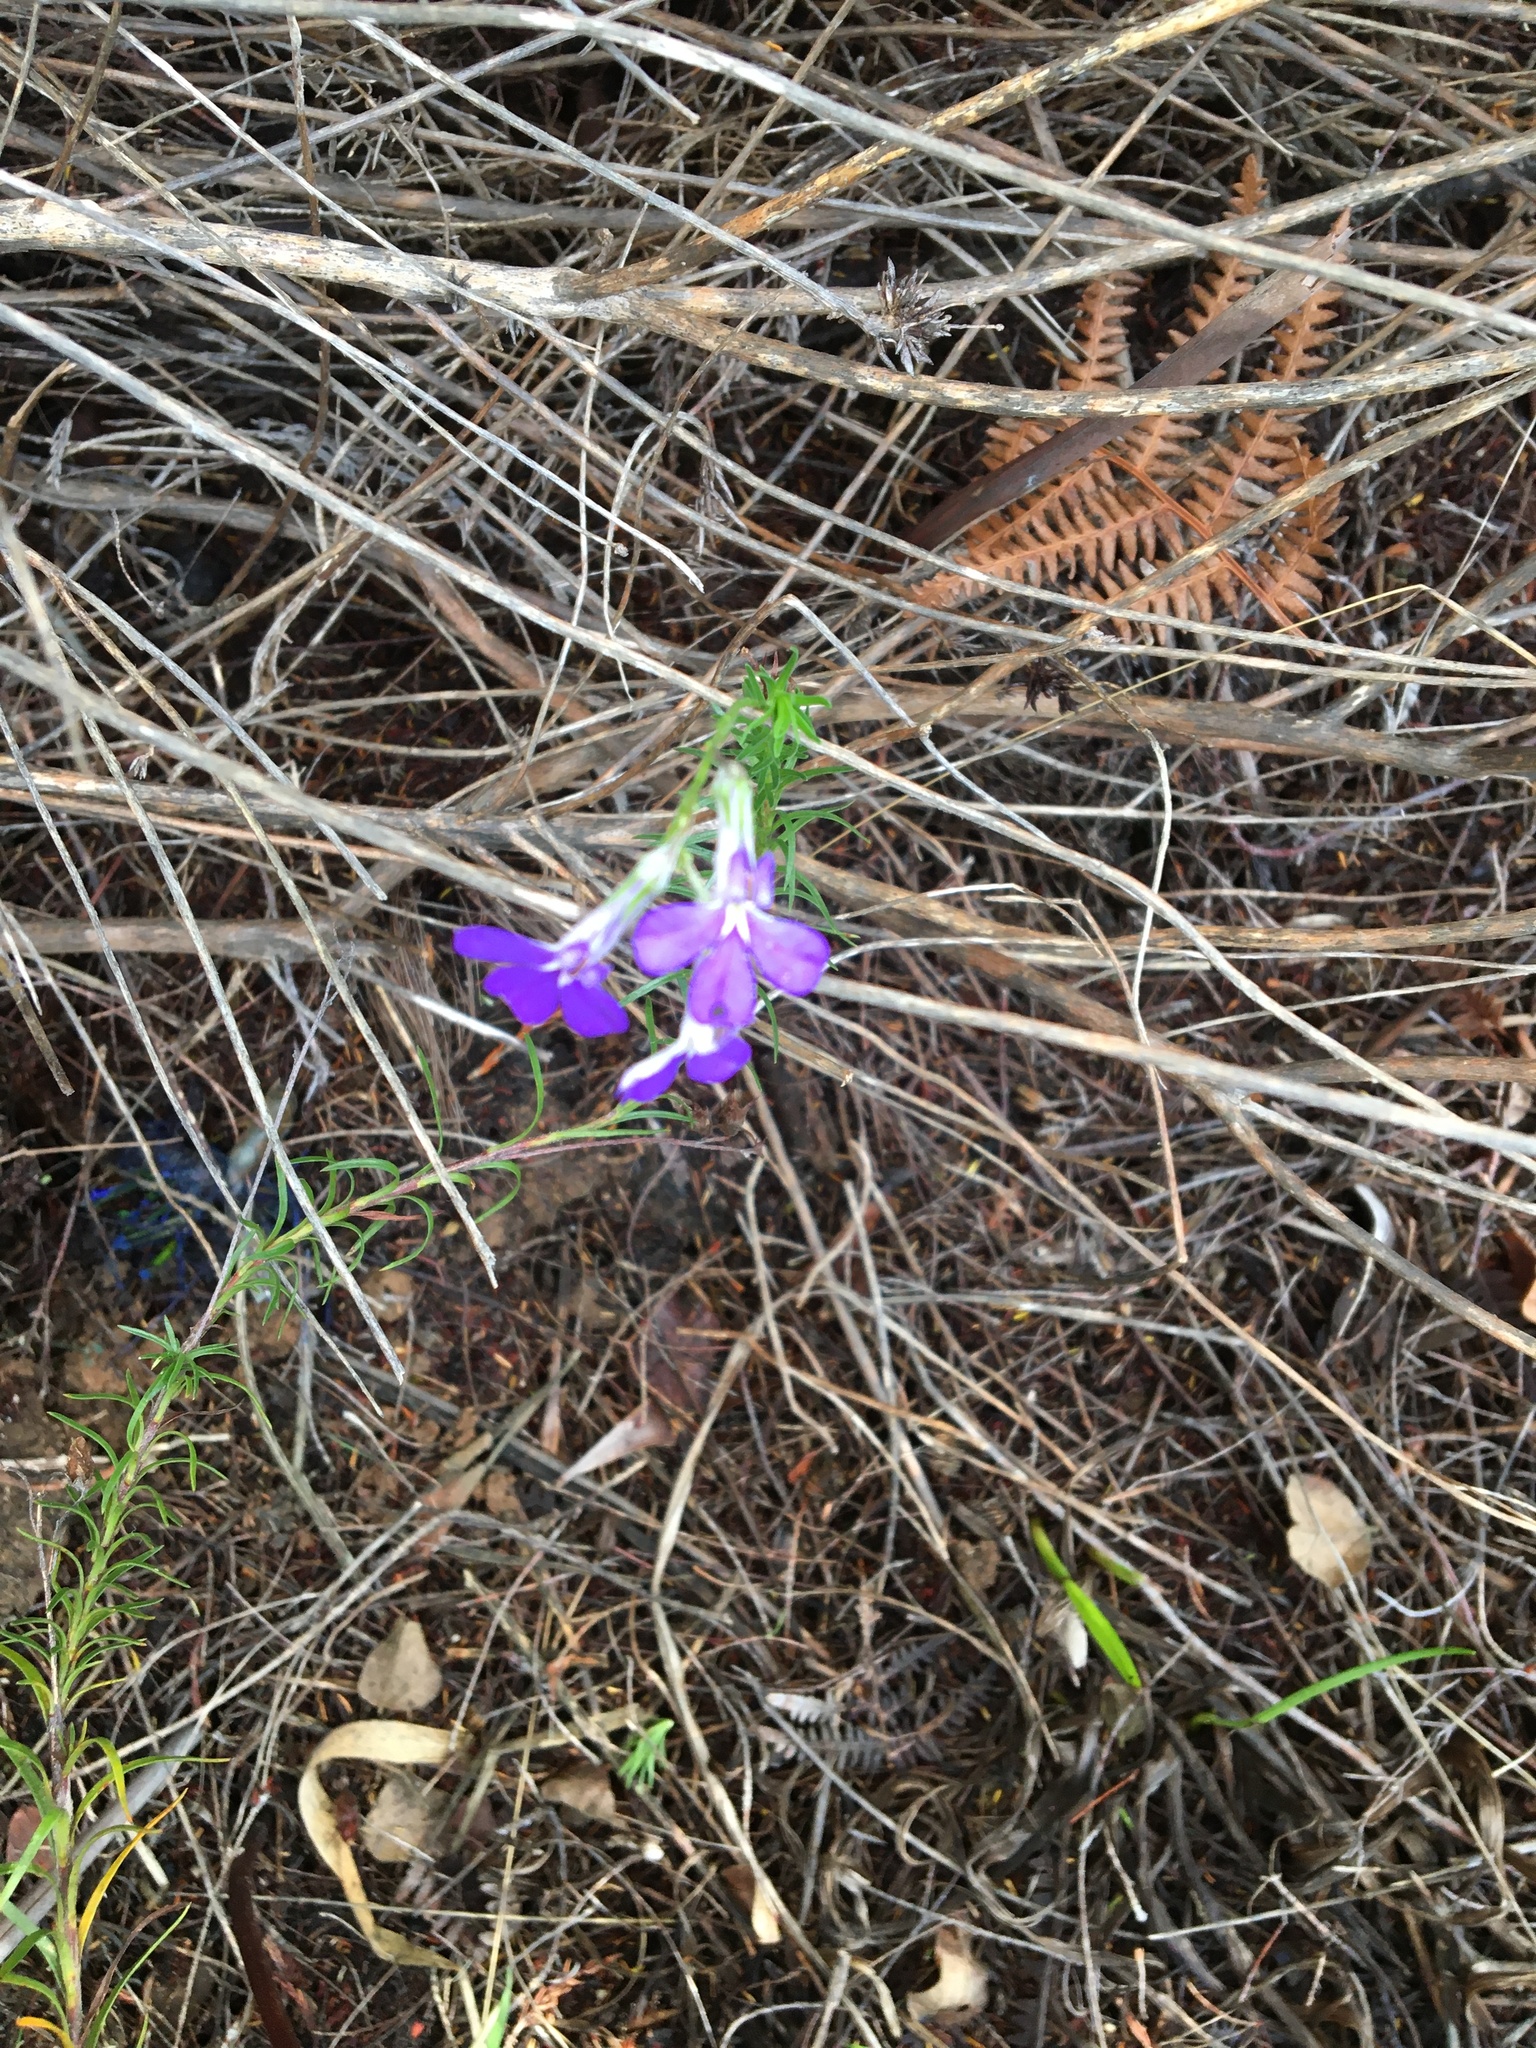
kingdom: Plantae
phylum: Tracheophyta
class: Magnoliopsida
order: Asterales
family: Campanulaceae
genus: Lobelia
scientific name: Lobelia pinifolia
